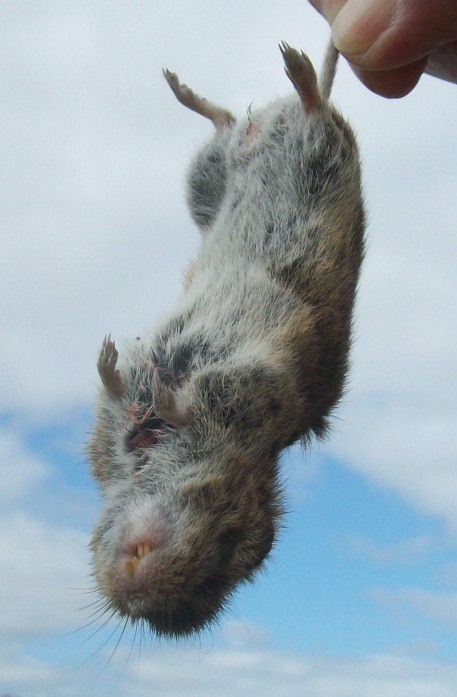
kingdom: Animalia
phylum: Chordata
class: Mammalia
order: Rodentia
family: Cricetidae
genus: Microtus
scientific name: Microtus arvalis
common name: Common vole
